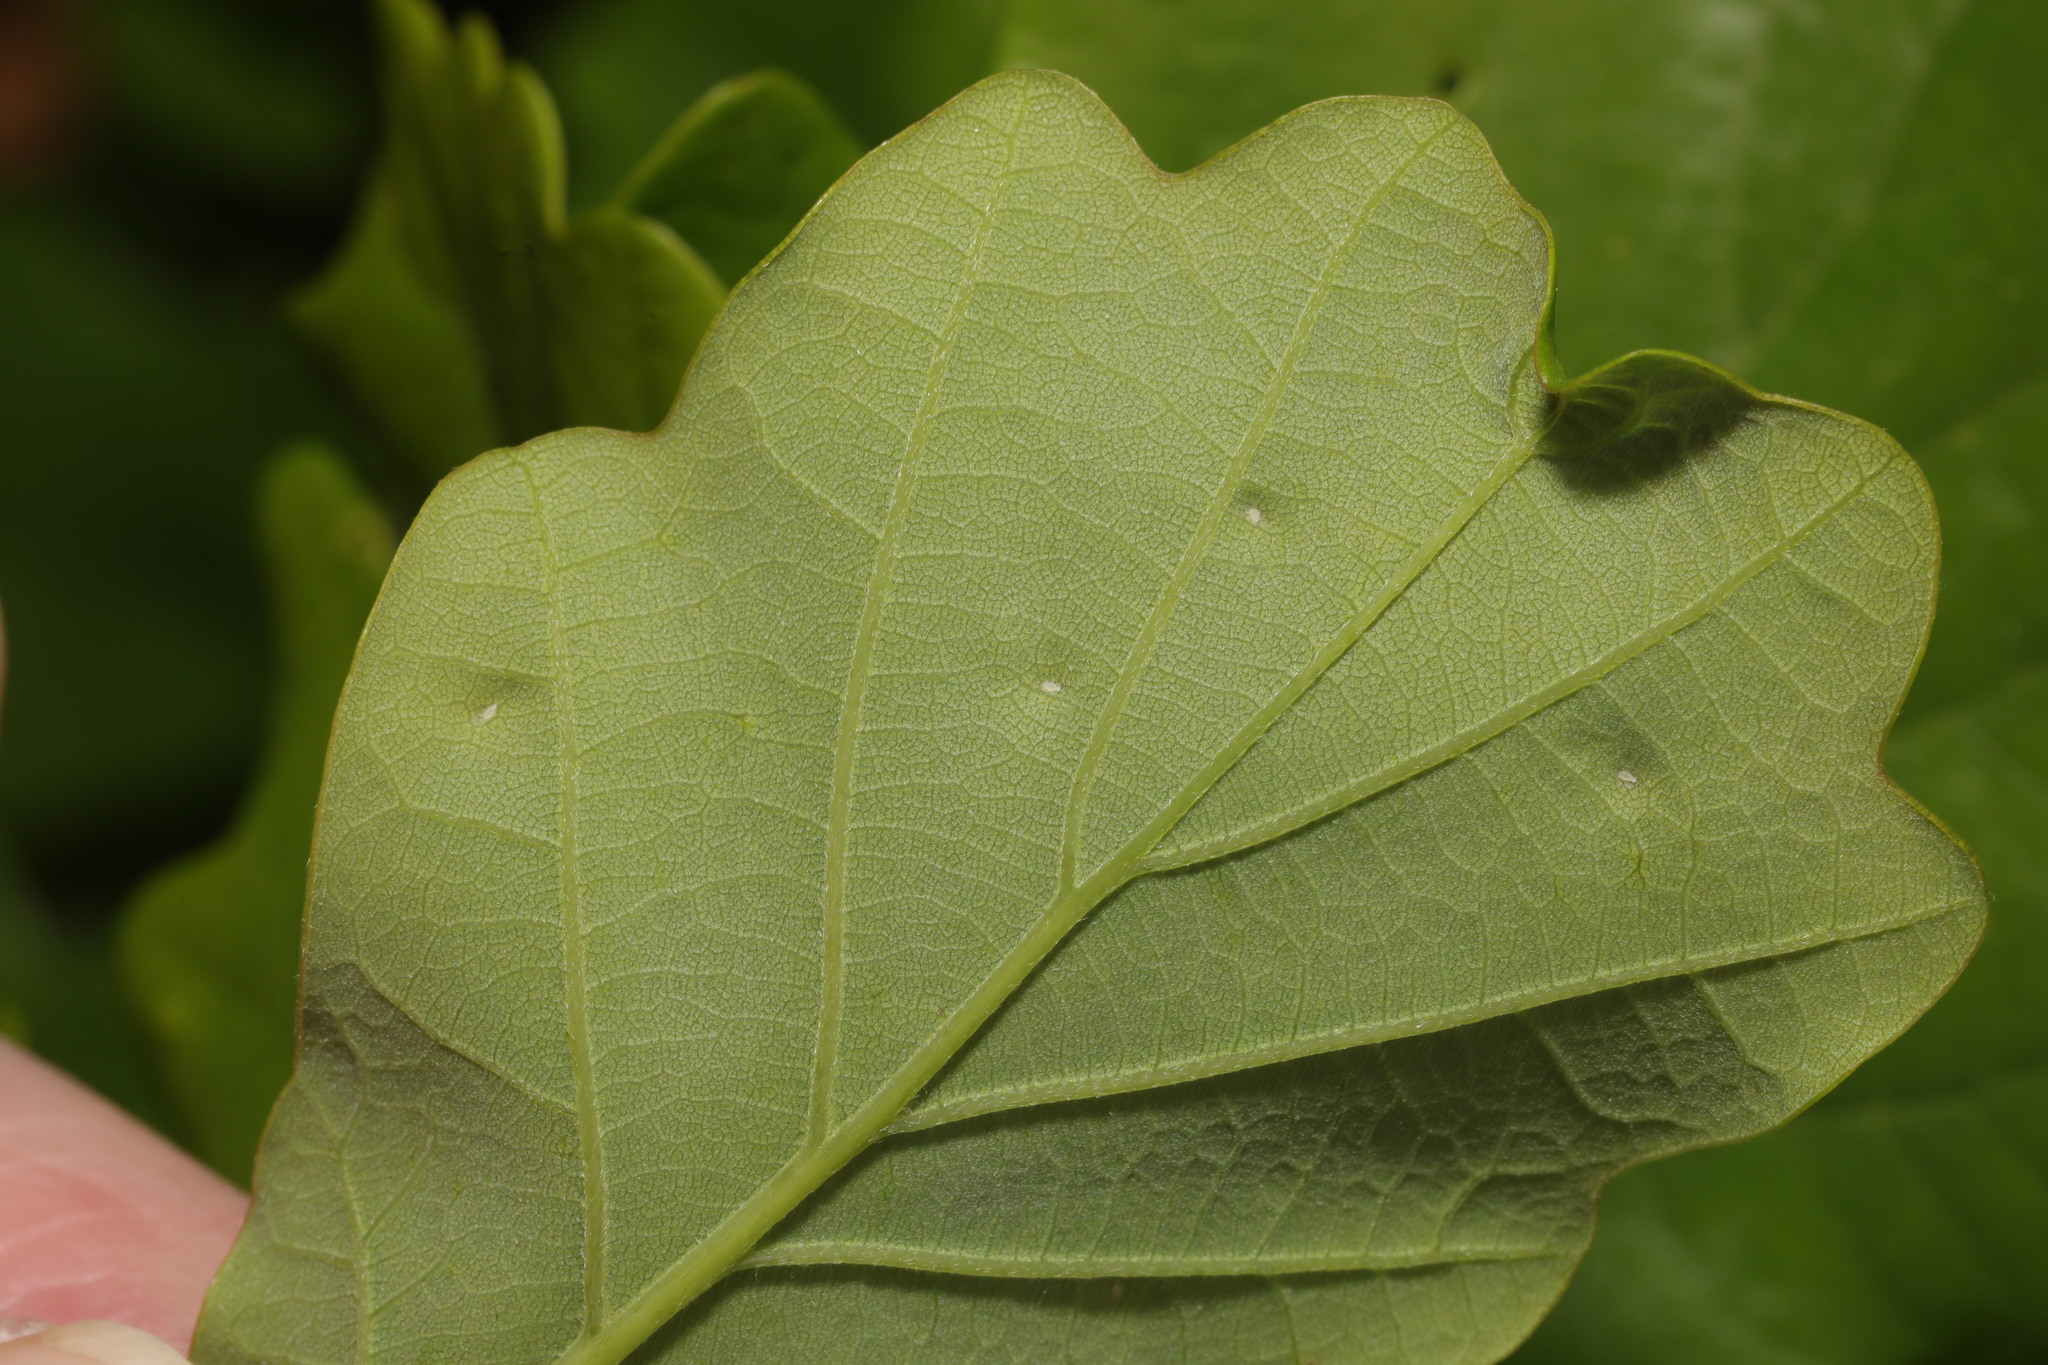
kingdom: Animalia
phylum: Arthropoda
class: Insecta
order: Hemiptera
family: Triozidae
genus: Trioza
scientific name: Trioza remota
